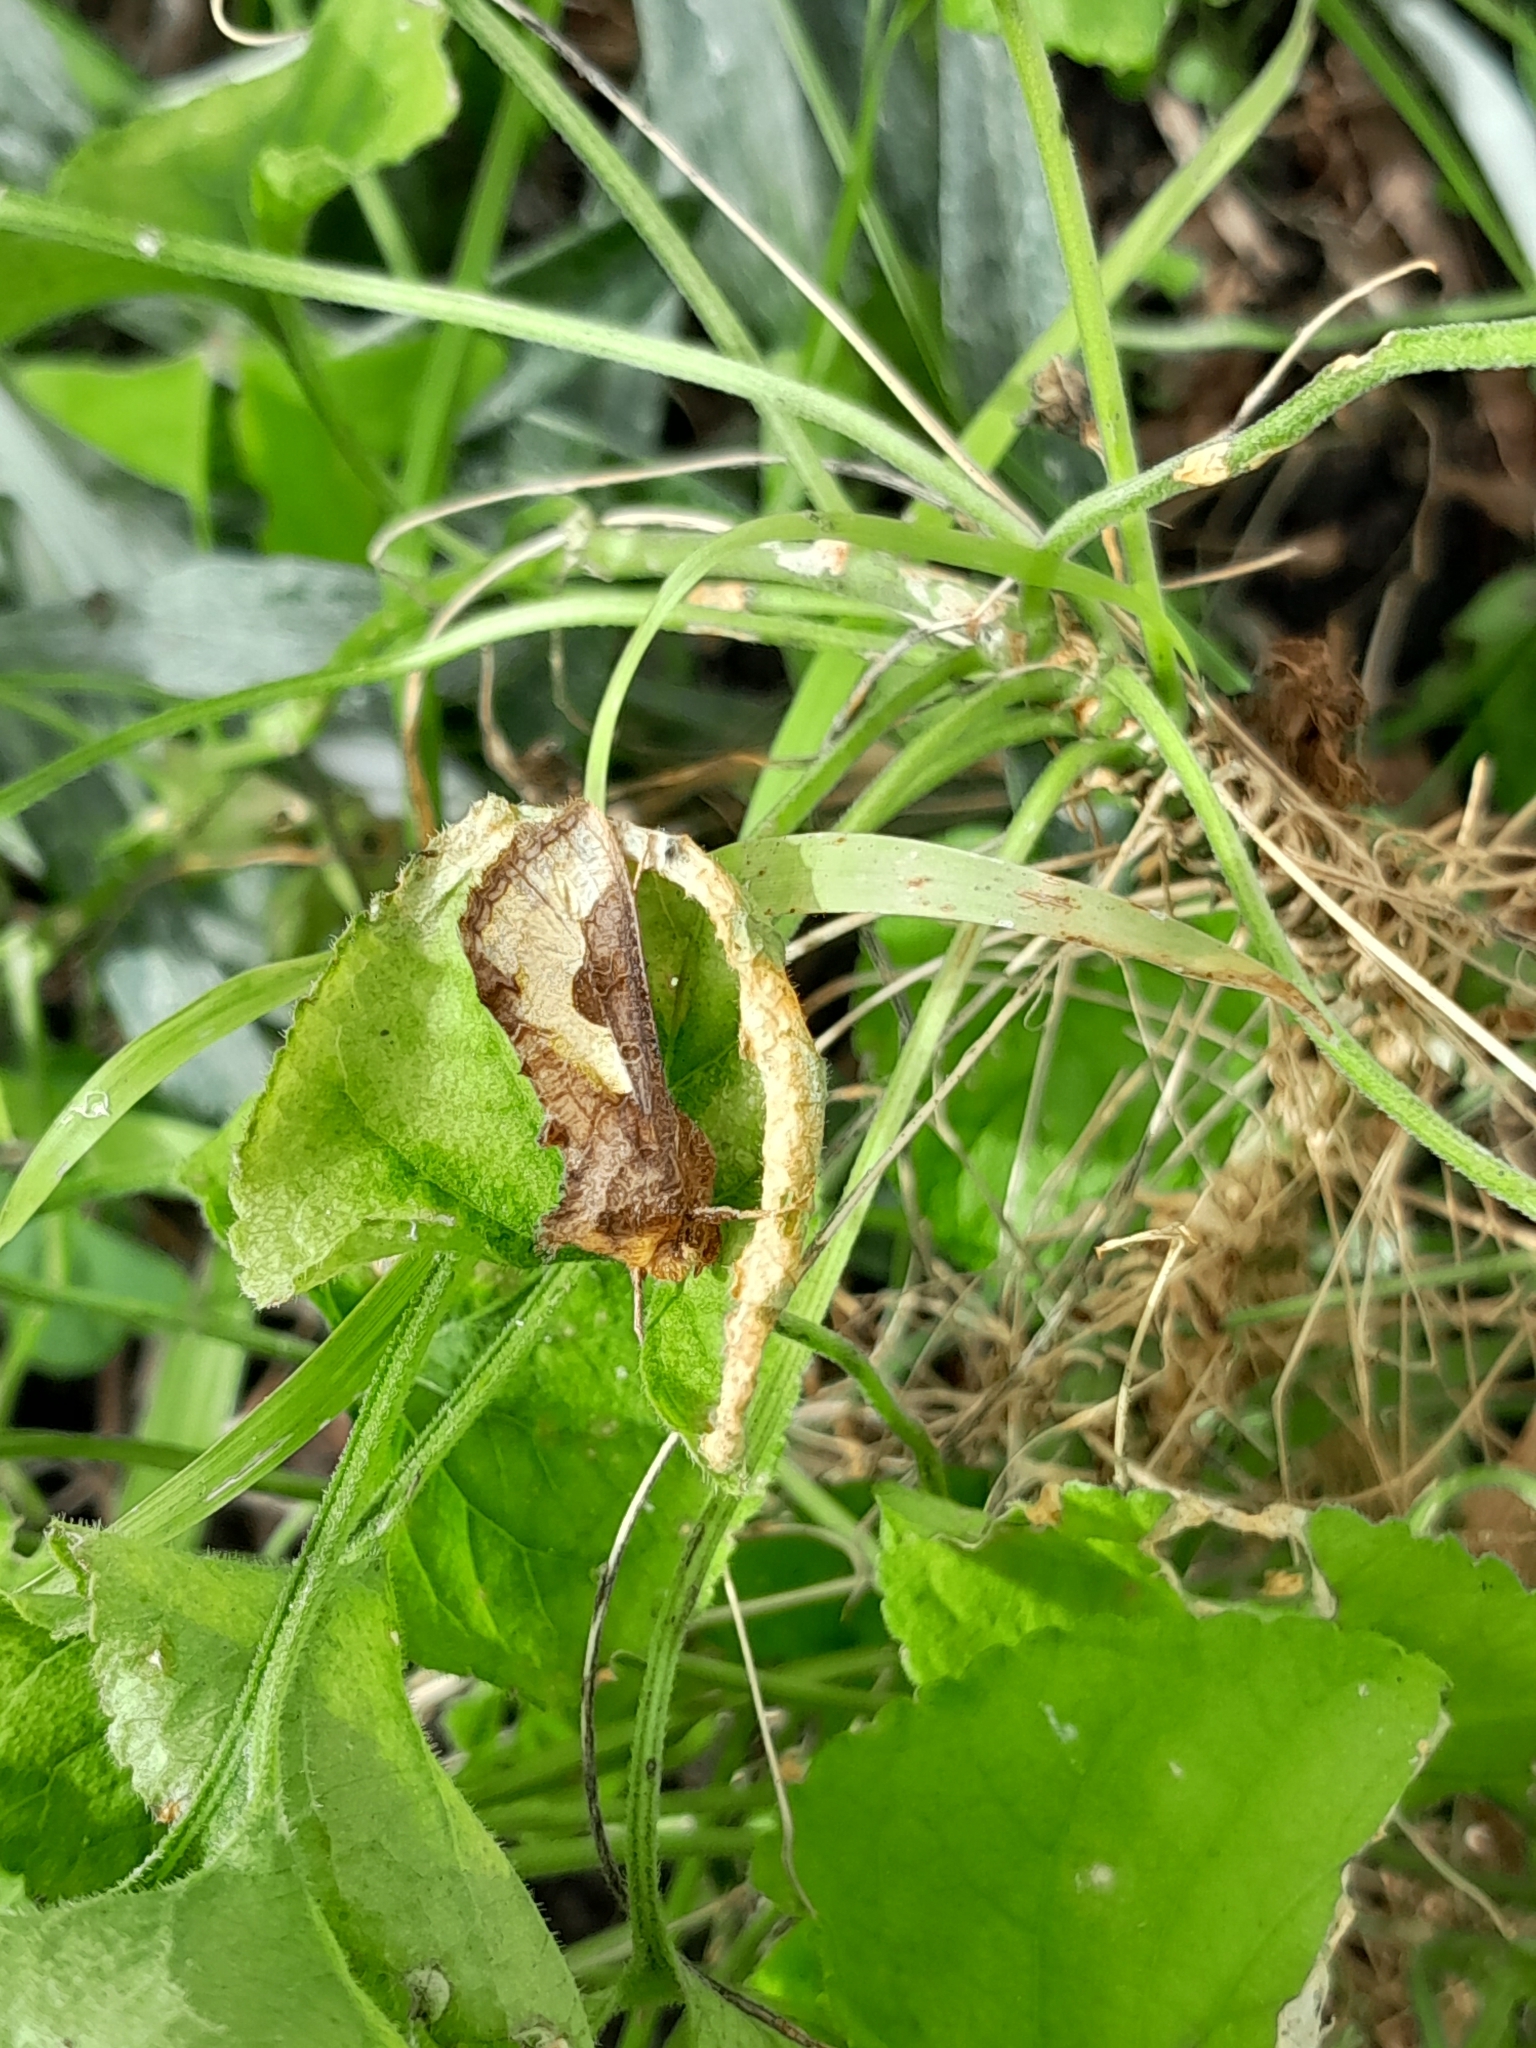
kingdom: Animalia
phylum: Arthropoda
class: Insecta
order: Lepidoptera
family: Noctuidae
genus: Thysanoplusia
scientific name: Thysanoplusia orichalcea
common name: Slender burnished brass, golden plusia
